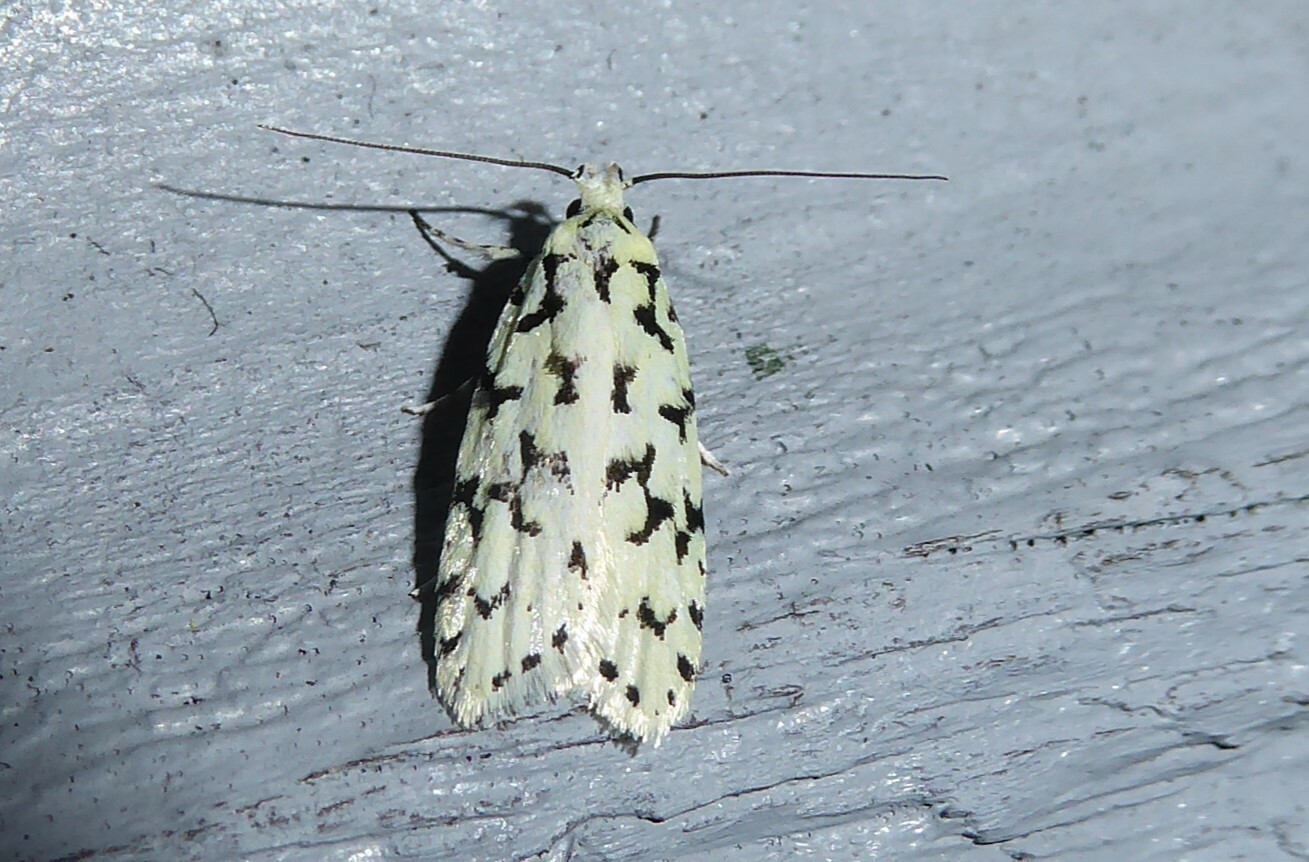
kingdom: Animalia
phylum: Arthropoda
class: Insecta
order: Lepidoptera
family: Oecophoridae
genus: Izatha
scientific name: Izatha huttoni
